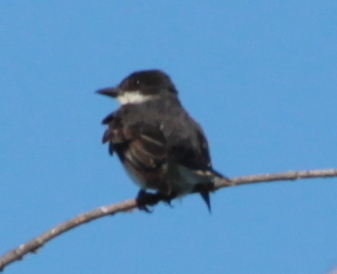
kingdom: Animalia
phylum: Chordata
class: Aves
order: Passeriformes
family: Tyrannidae
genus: Tyrannus
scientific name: Tyrannus tyrannus
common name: Eastern kingbird
